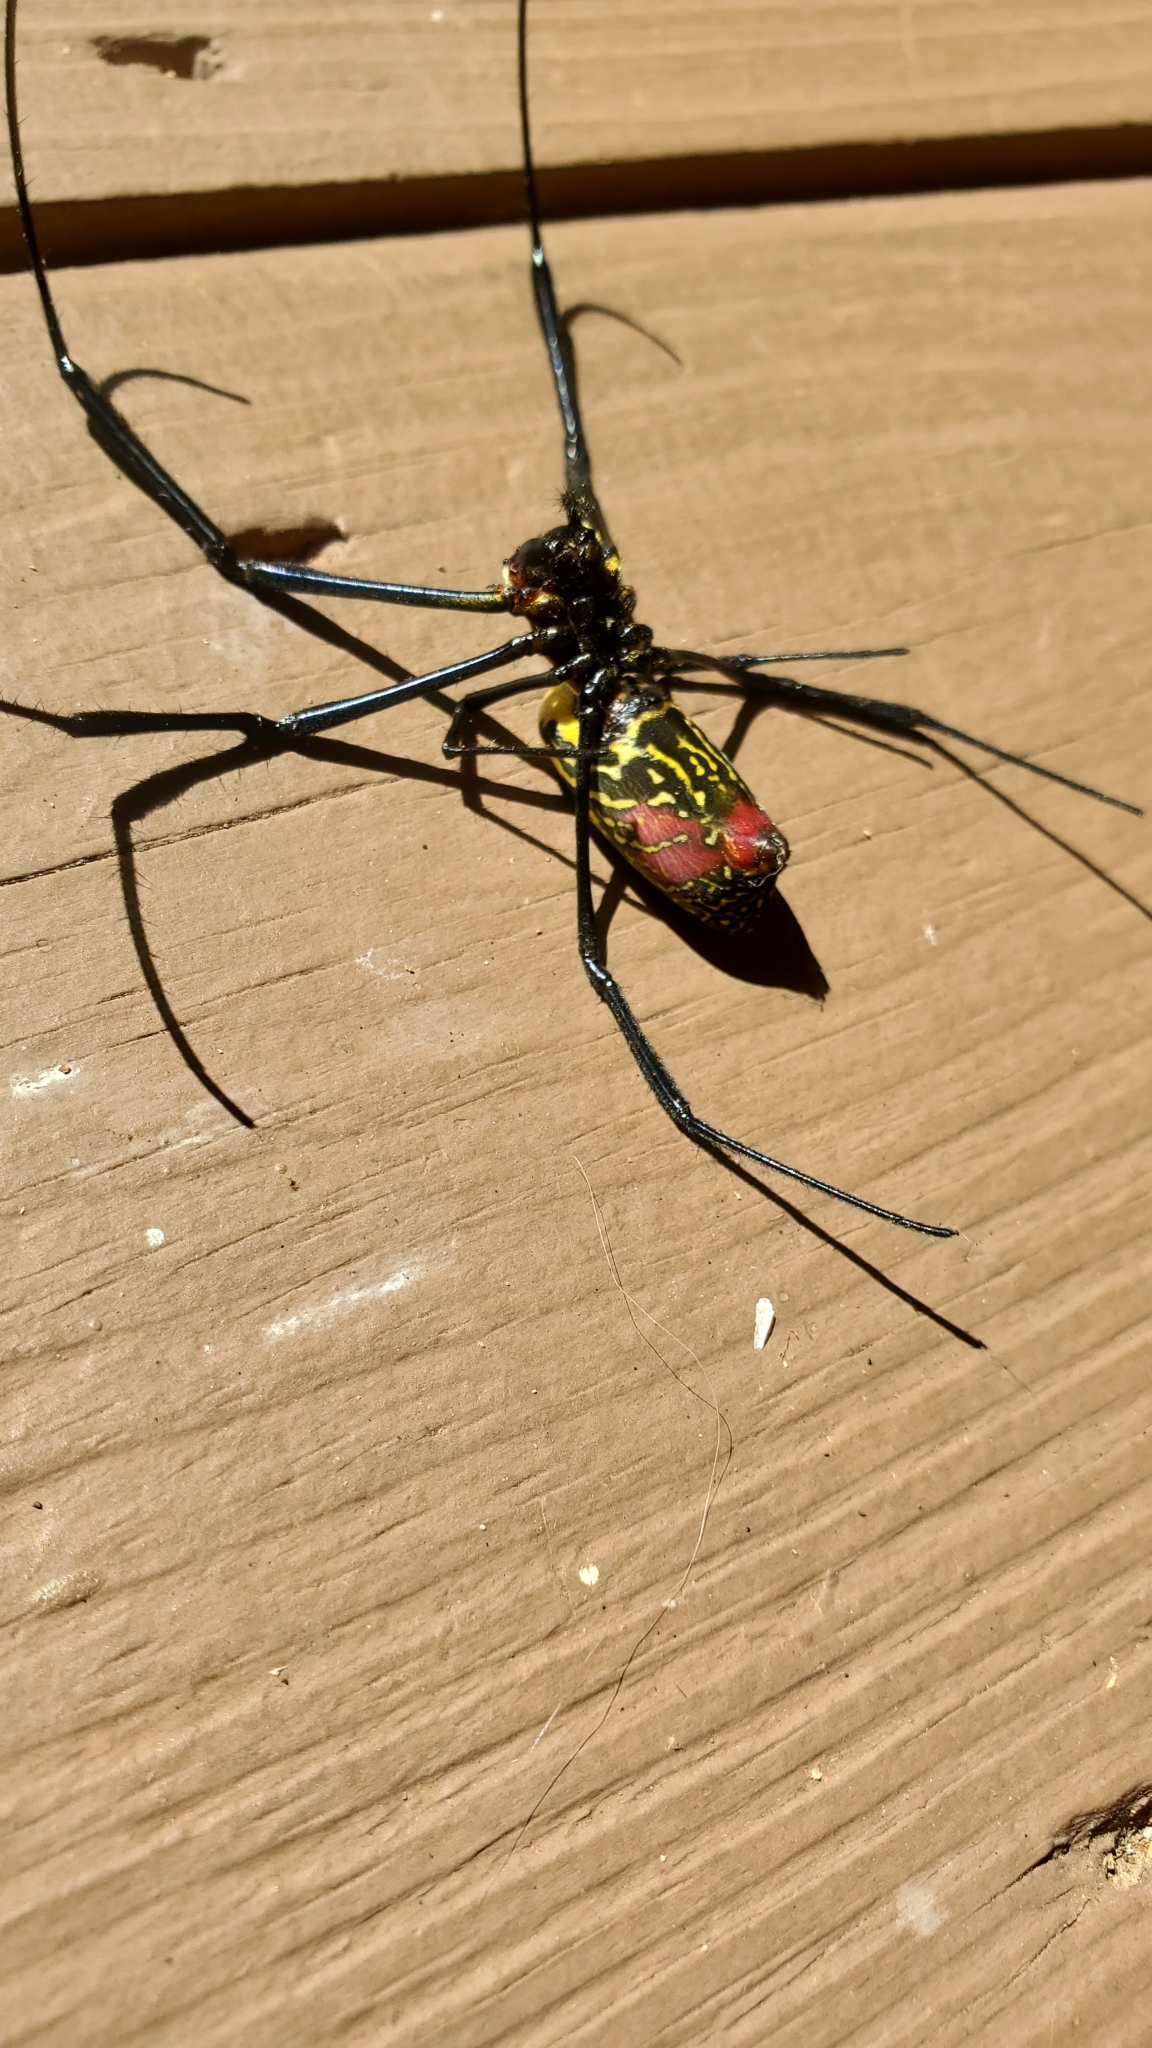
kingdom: Animalia
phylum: Arthropoda
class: Arachnida
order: Araneae
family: Araneidae
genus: Trichonephila
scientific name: Trichonephila clavata
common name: Jorō spider
